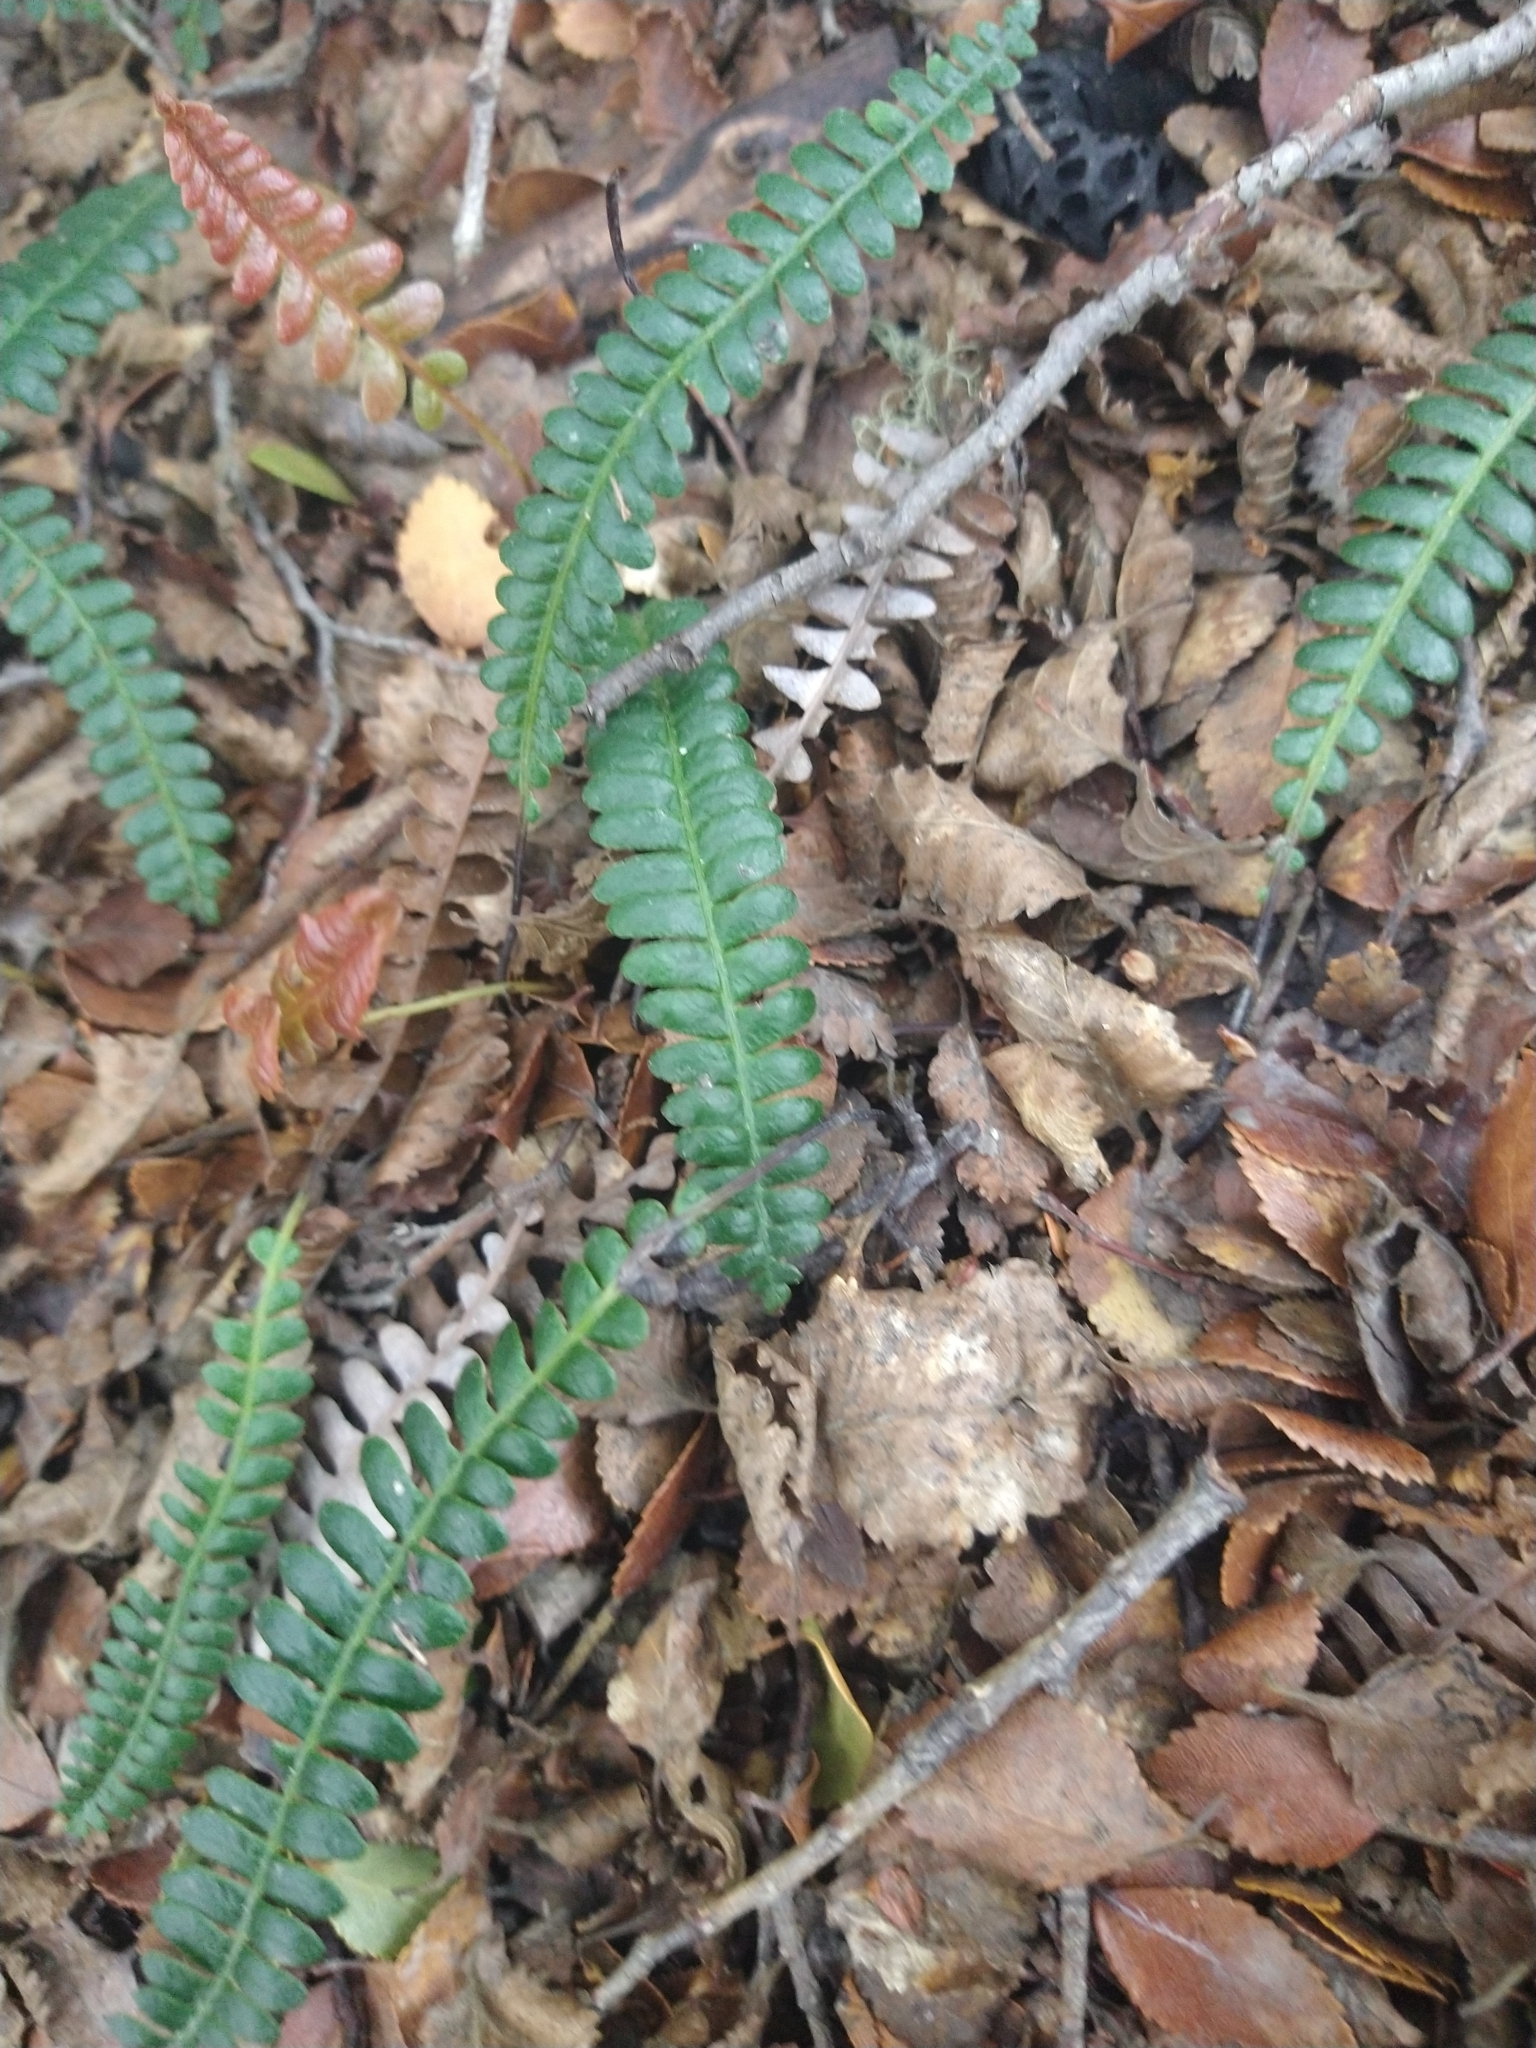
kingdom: Plantae
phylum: Tracheophyta
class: Polypodiopsida
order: Polypodiales
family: Blechnaceae
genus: Austroblechnum
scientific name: Austroblechnum penna-marina
